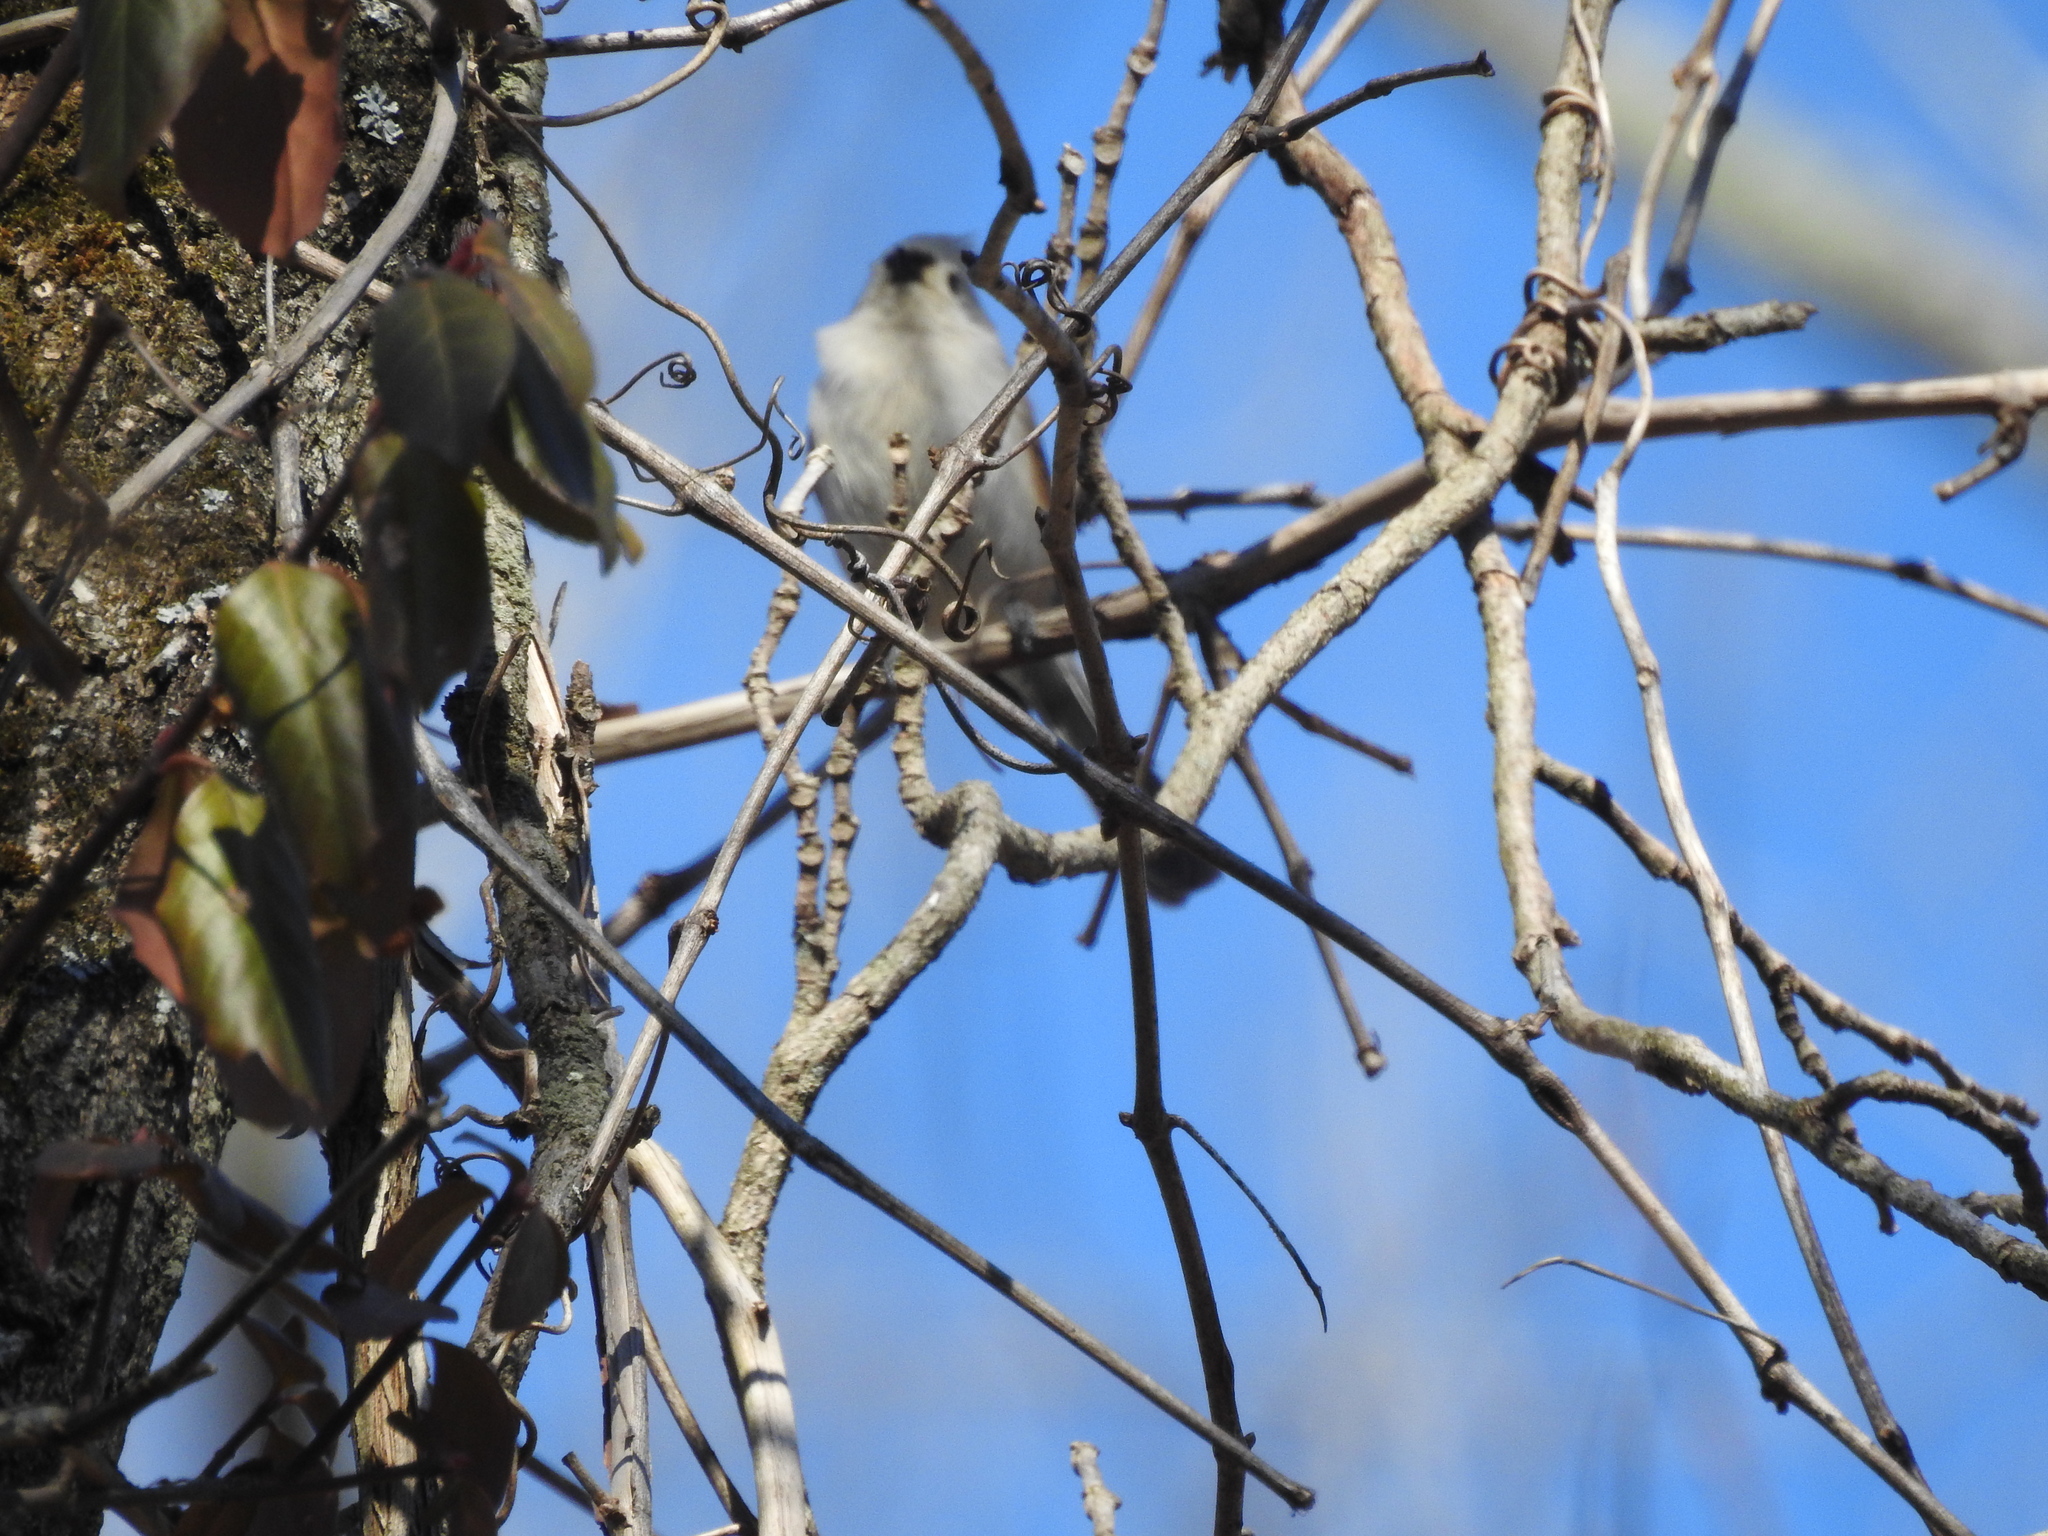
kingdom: Animalia
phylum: Chordata
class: Aves
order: Passeriformes
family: Paridae
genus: Baeolophus
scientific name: Baeolophus bicolor
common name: Tufted titmouse
